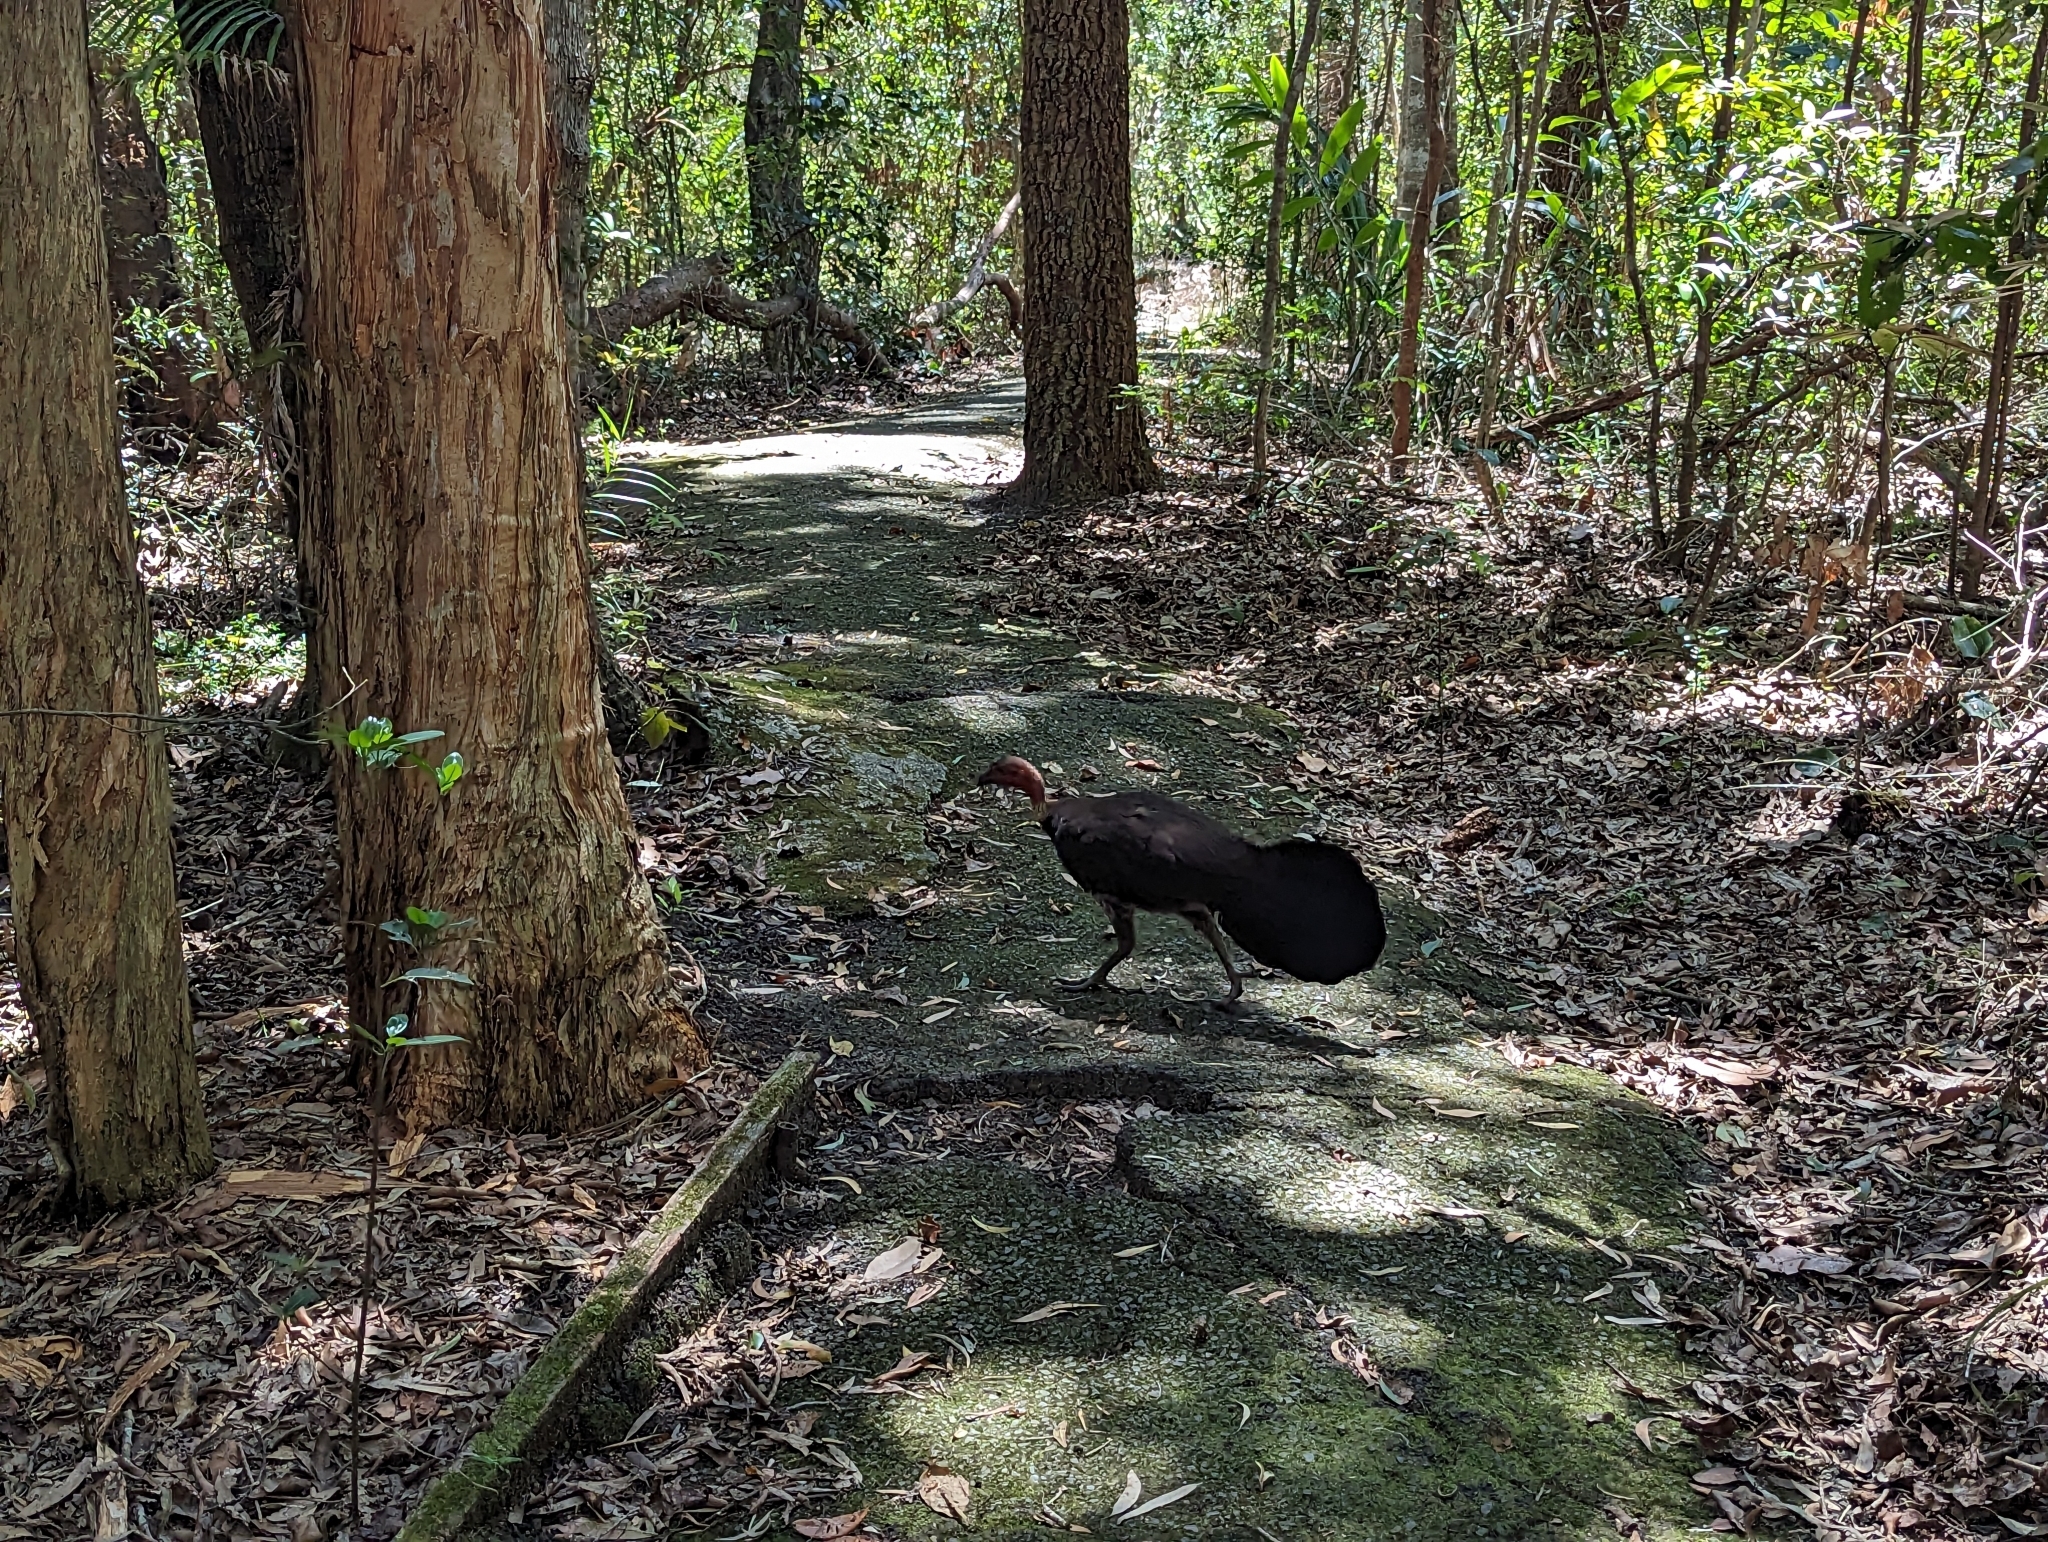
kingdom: Animalia
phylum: Chordata
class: Aves
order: Galliformes
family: Megapodiidae
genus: Alectura
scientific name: Alectura lathami
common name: Australian brushturkey
